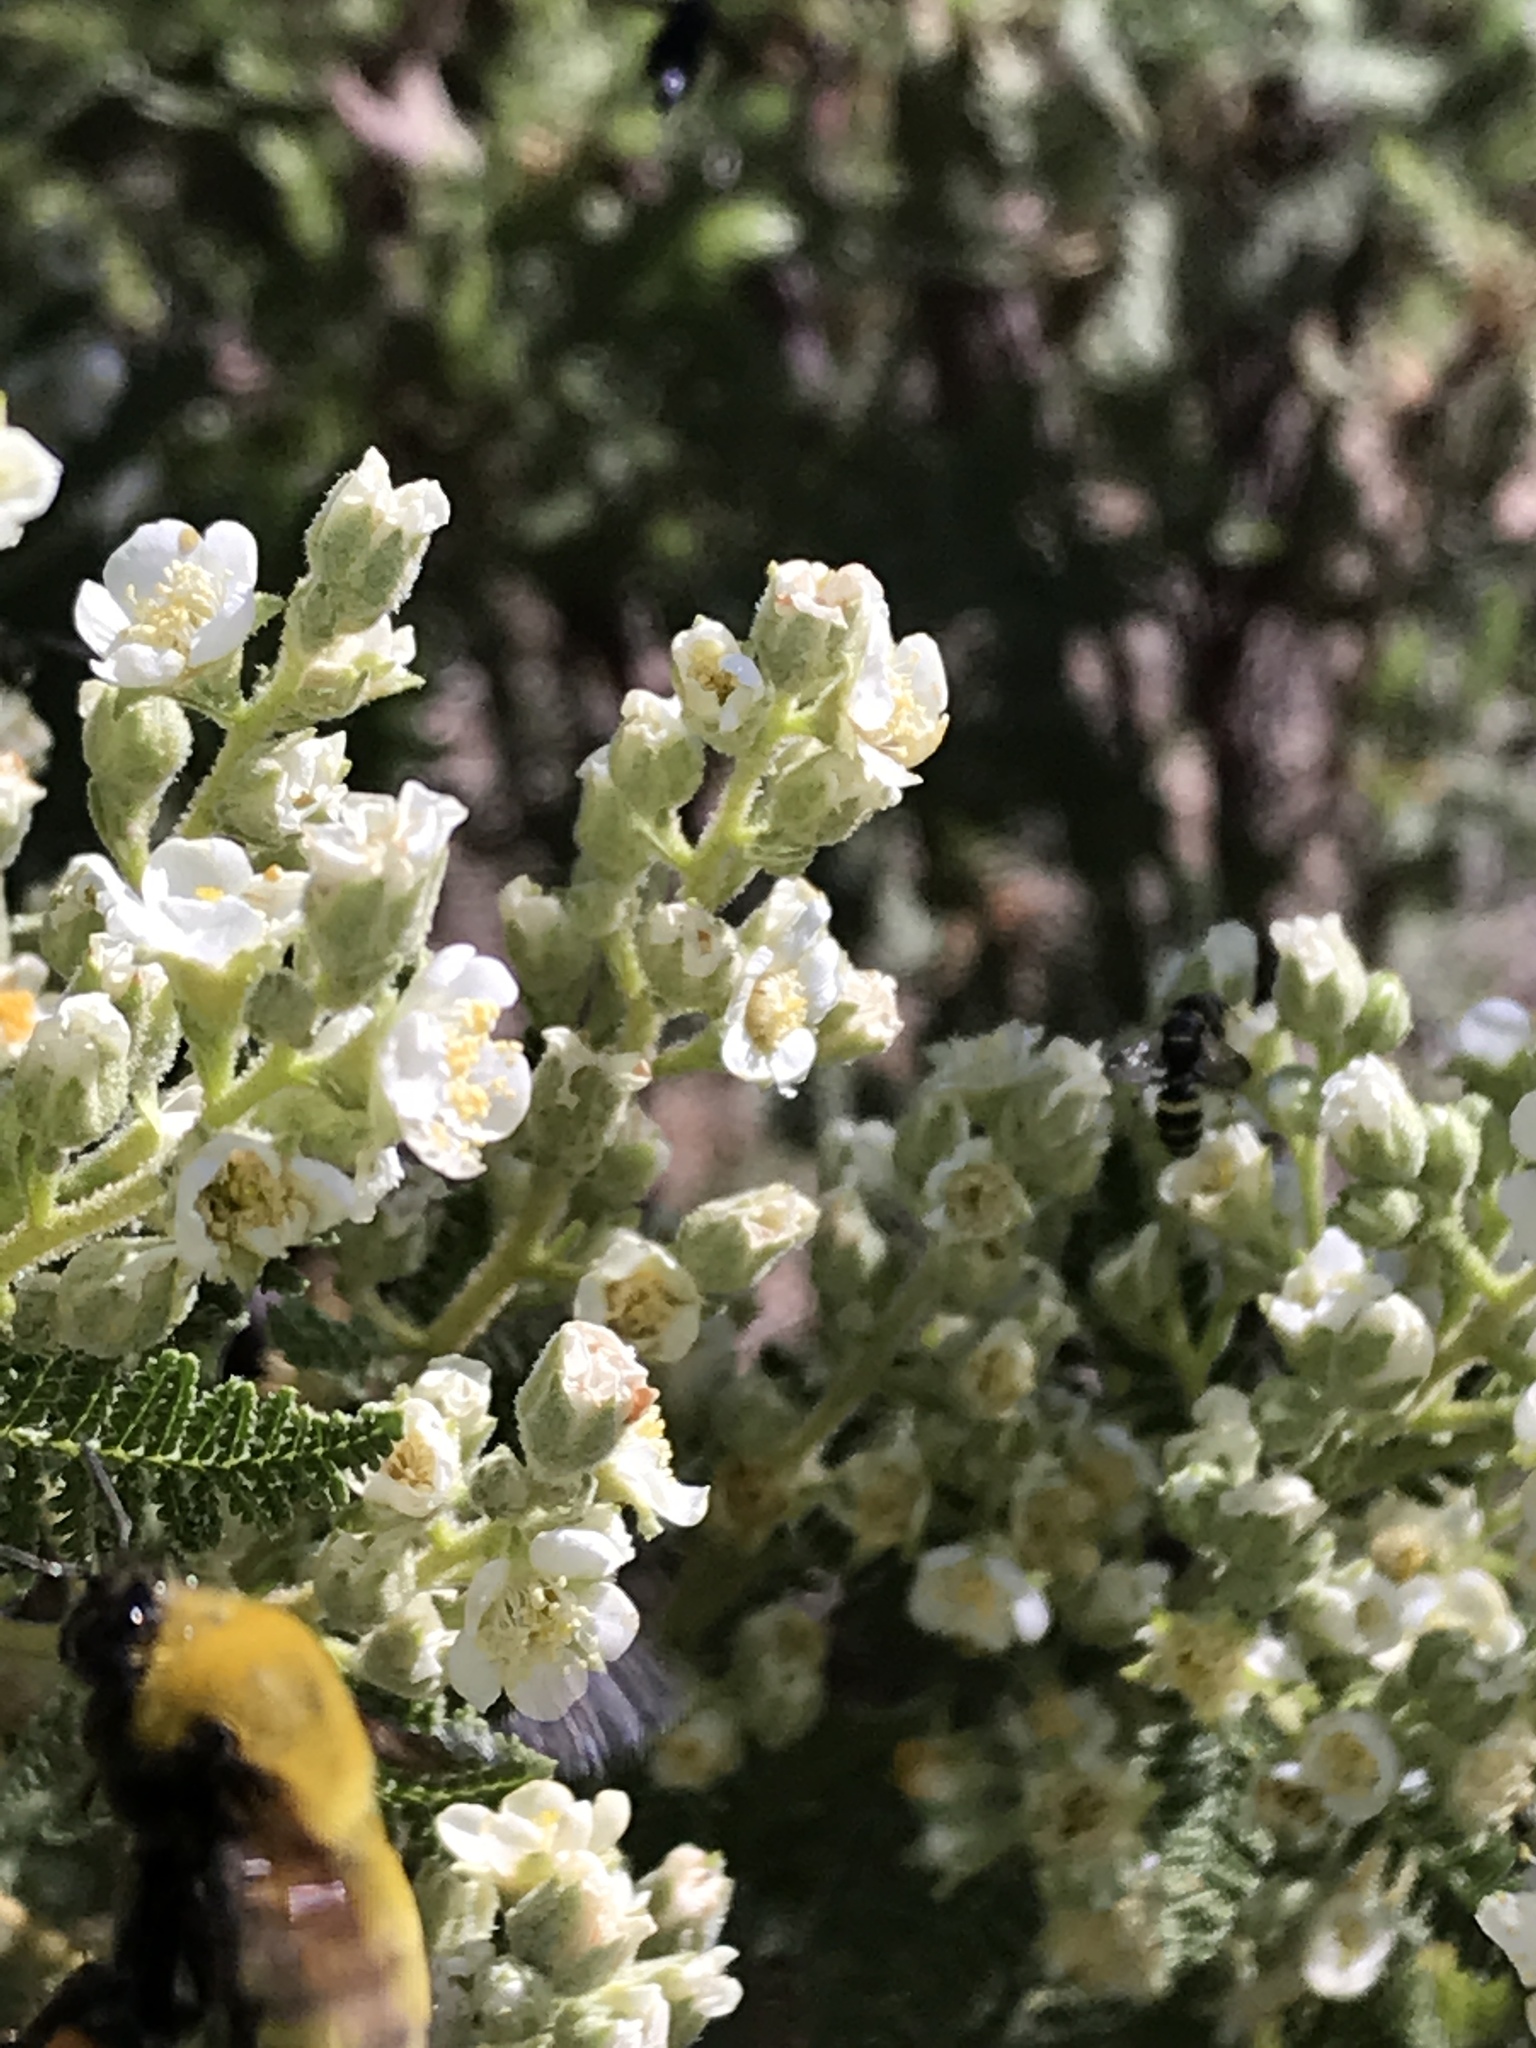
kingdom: Animalia
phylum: Arthropoda
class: Insecta
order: Hymenoptera
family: Apidae
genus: Bombus
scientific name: Bombus morrisoni
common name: Morrison bumble bee
